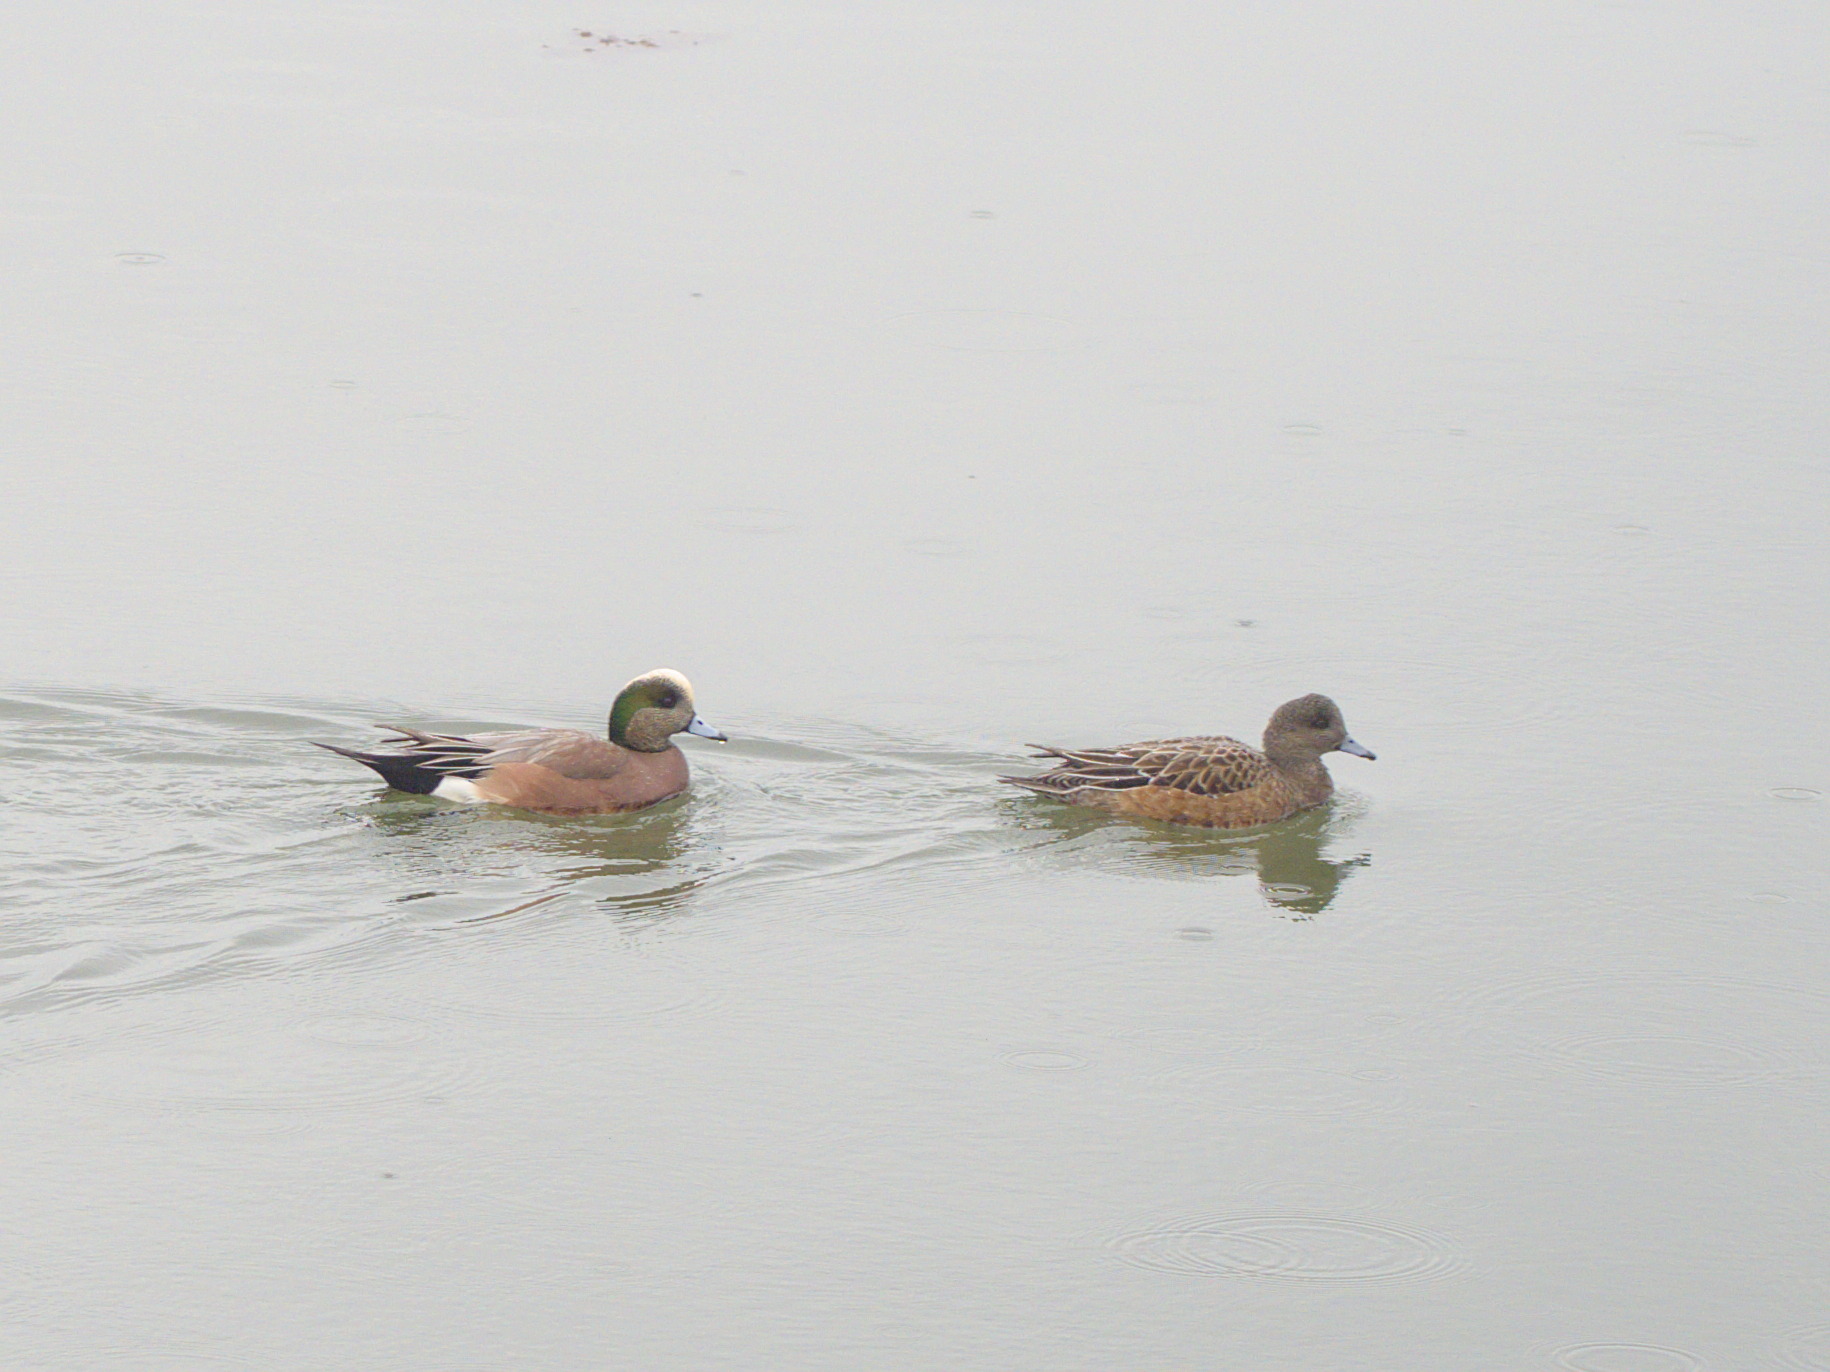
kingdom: Animalia
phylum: Chordata
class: Aves
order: Anseriformes
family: Anatidae
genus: Mareca
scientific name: Mareca americana
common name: American wigeon
